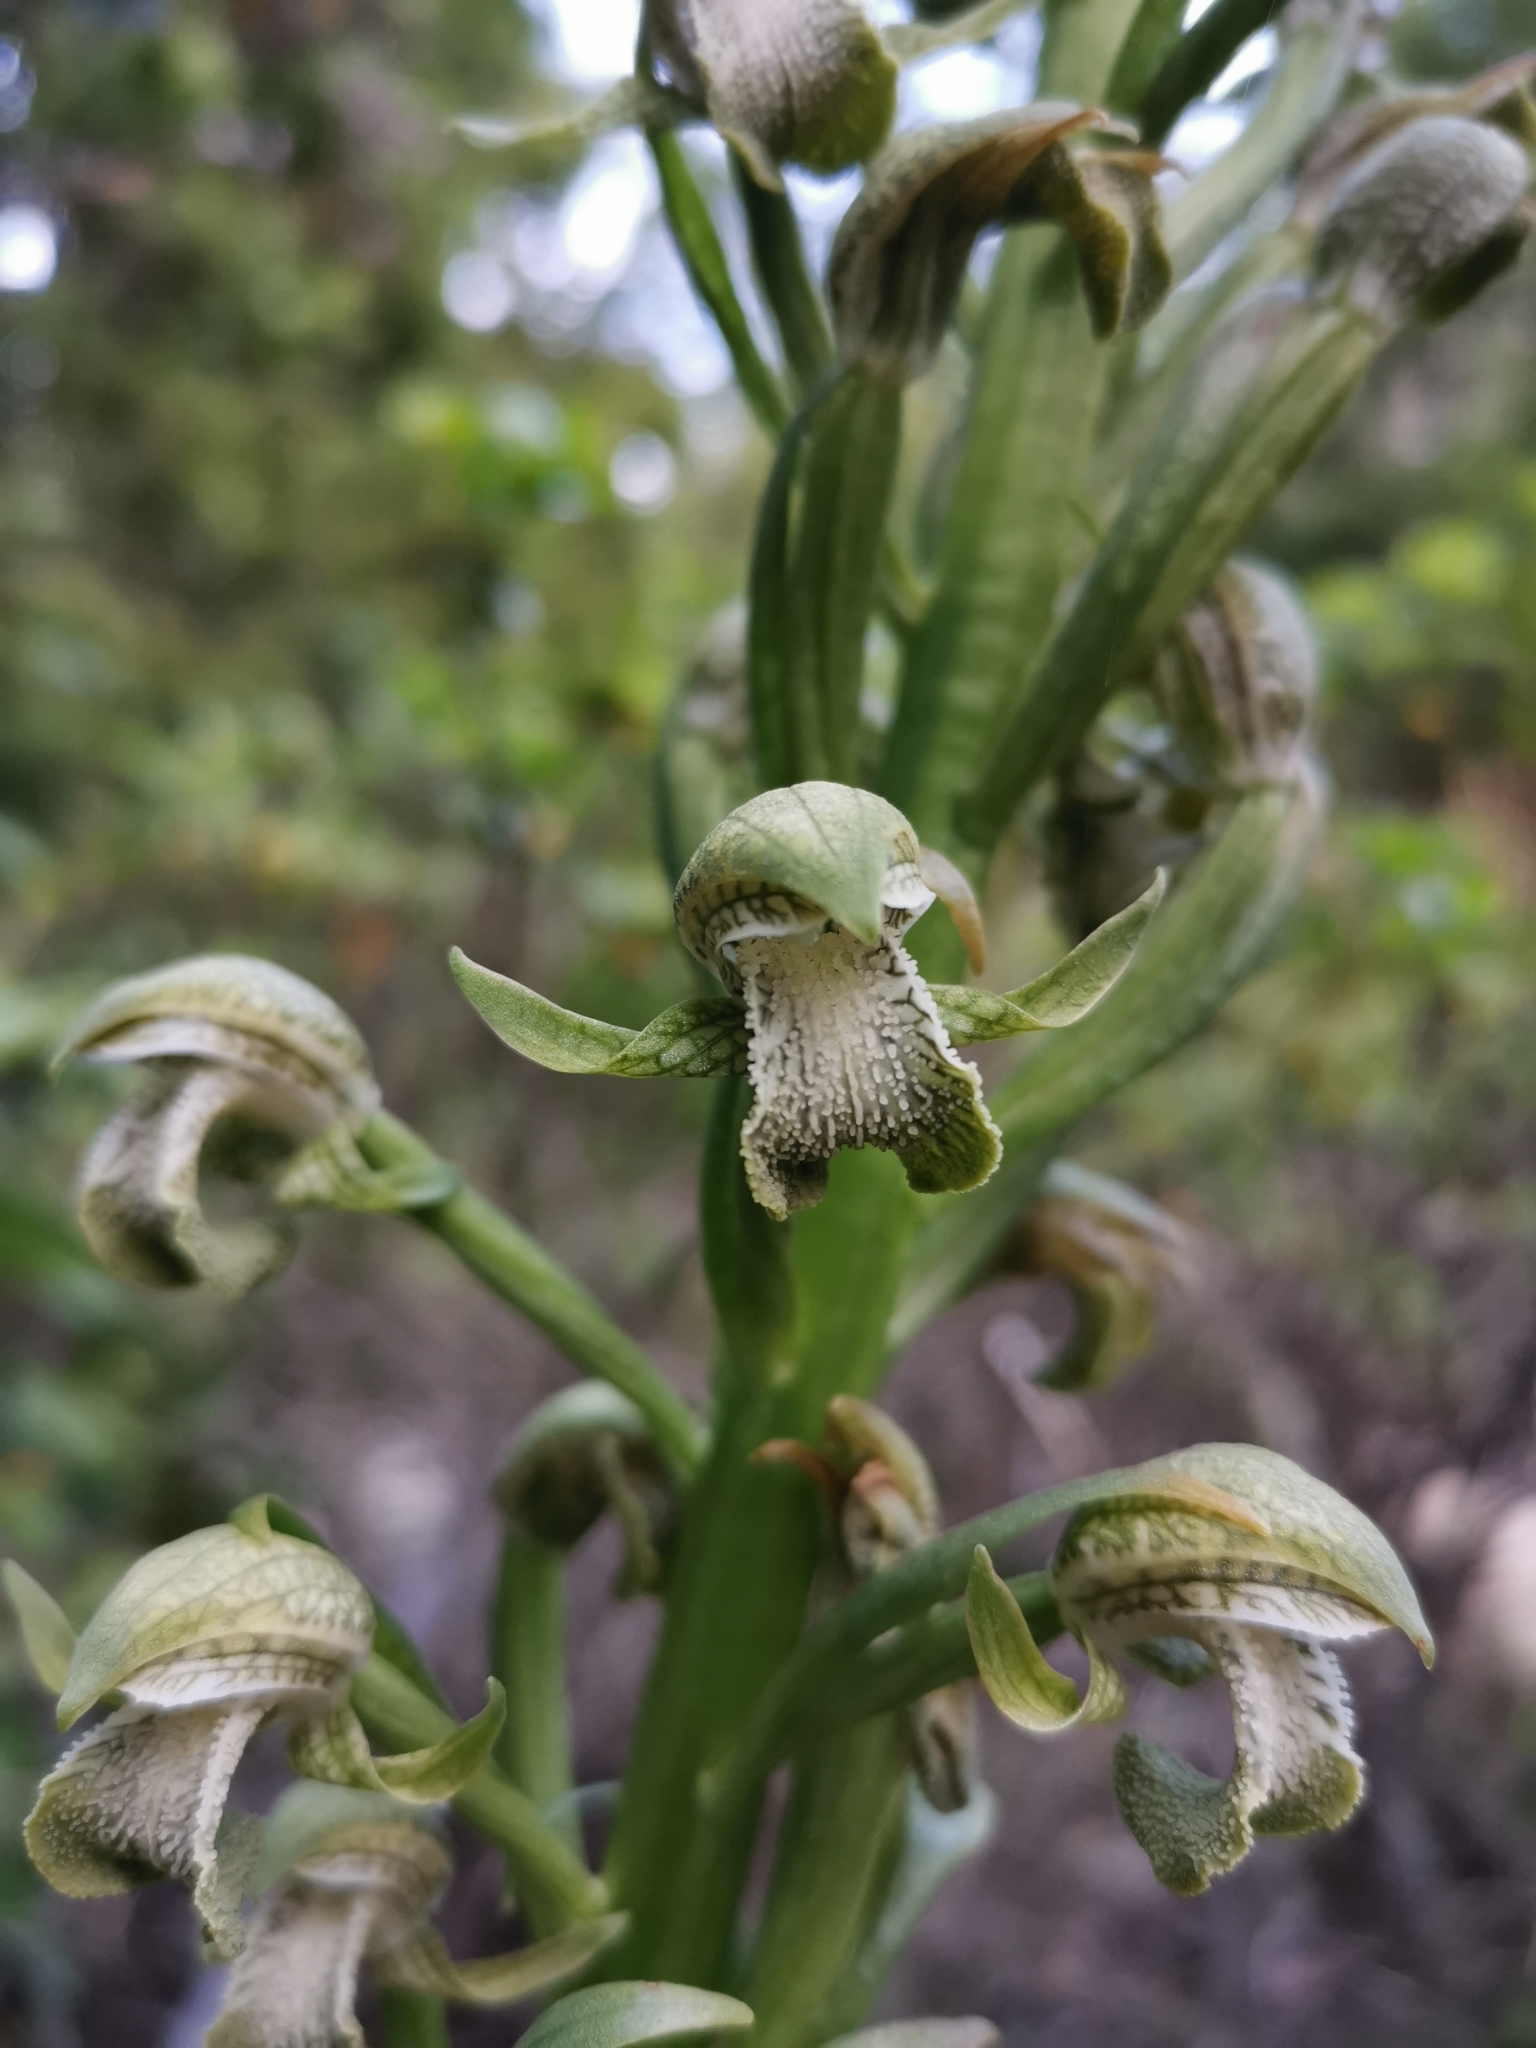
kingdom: Plantae
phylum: Tracheophyta
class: Liliopsida
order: Asparagales
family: Orchidaceae
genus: Chloraea
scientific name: Chloraea cylindrostachya
